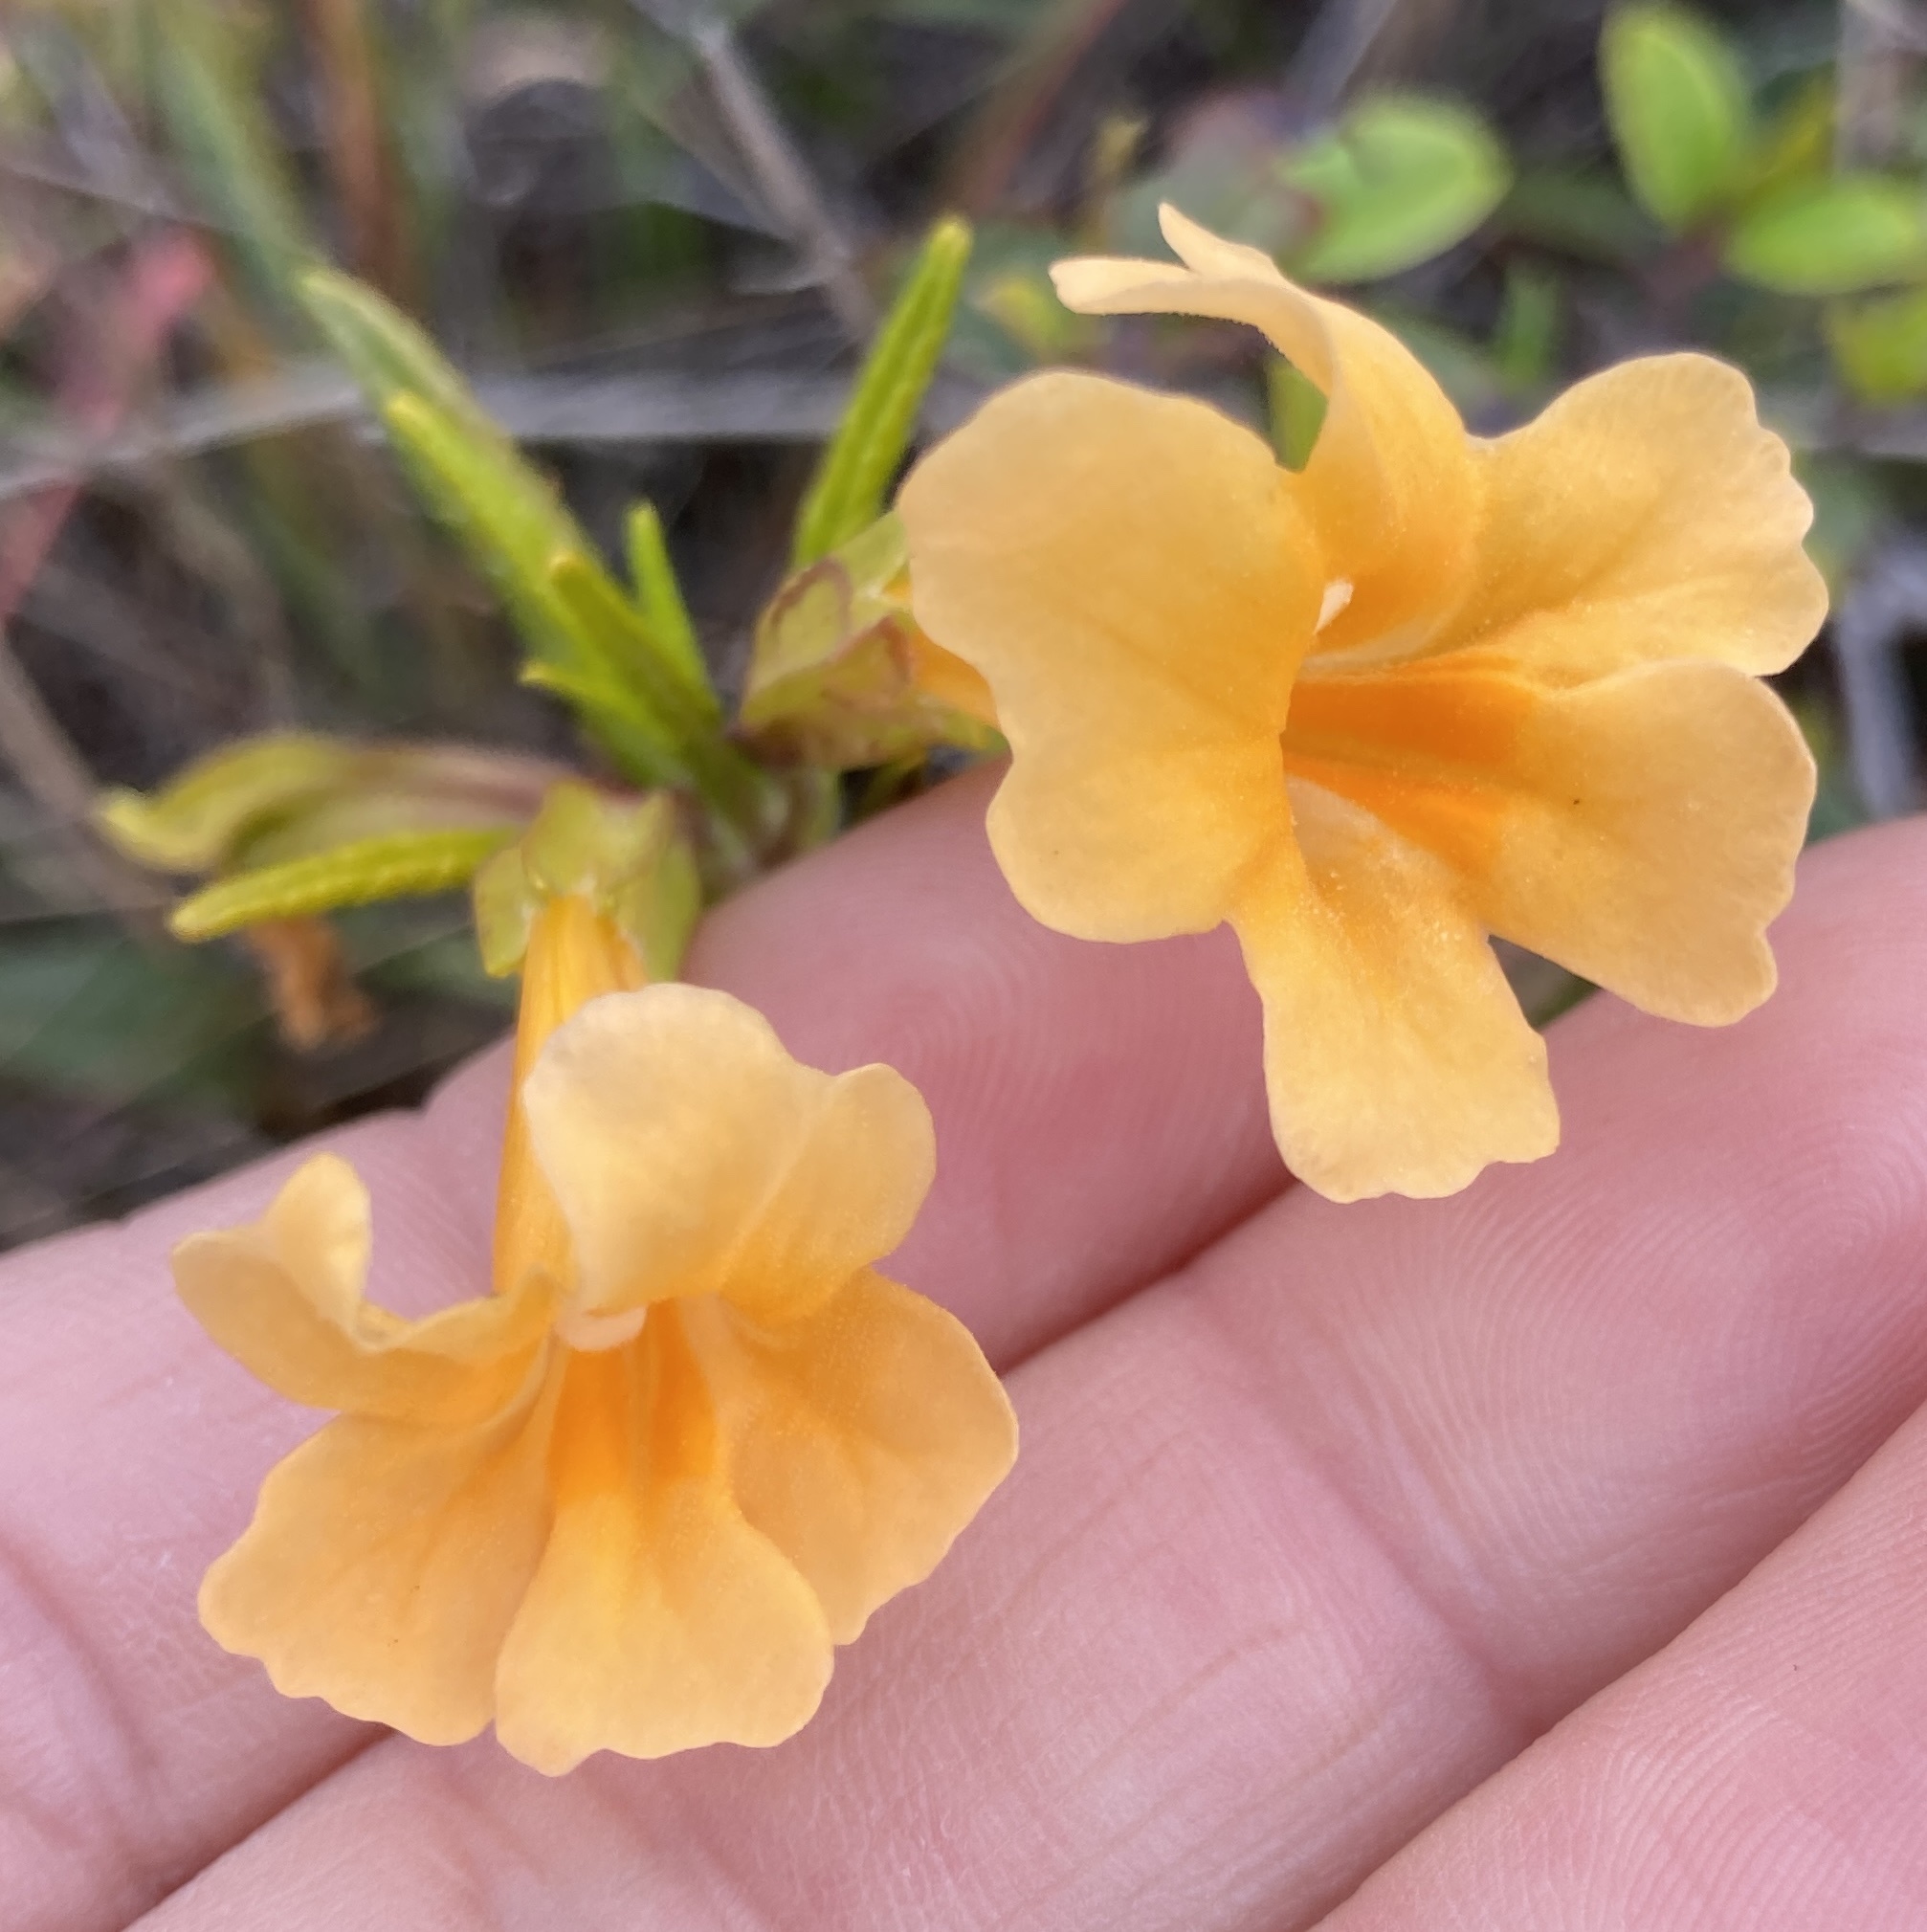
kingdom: Plantae
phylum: Tracheophyta
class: Magnoliopsida
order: Lamiales
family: Phrymaceae
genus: Diplacus
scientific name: Diplacus aurantiacus
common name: Bush monkey-flower
